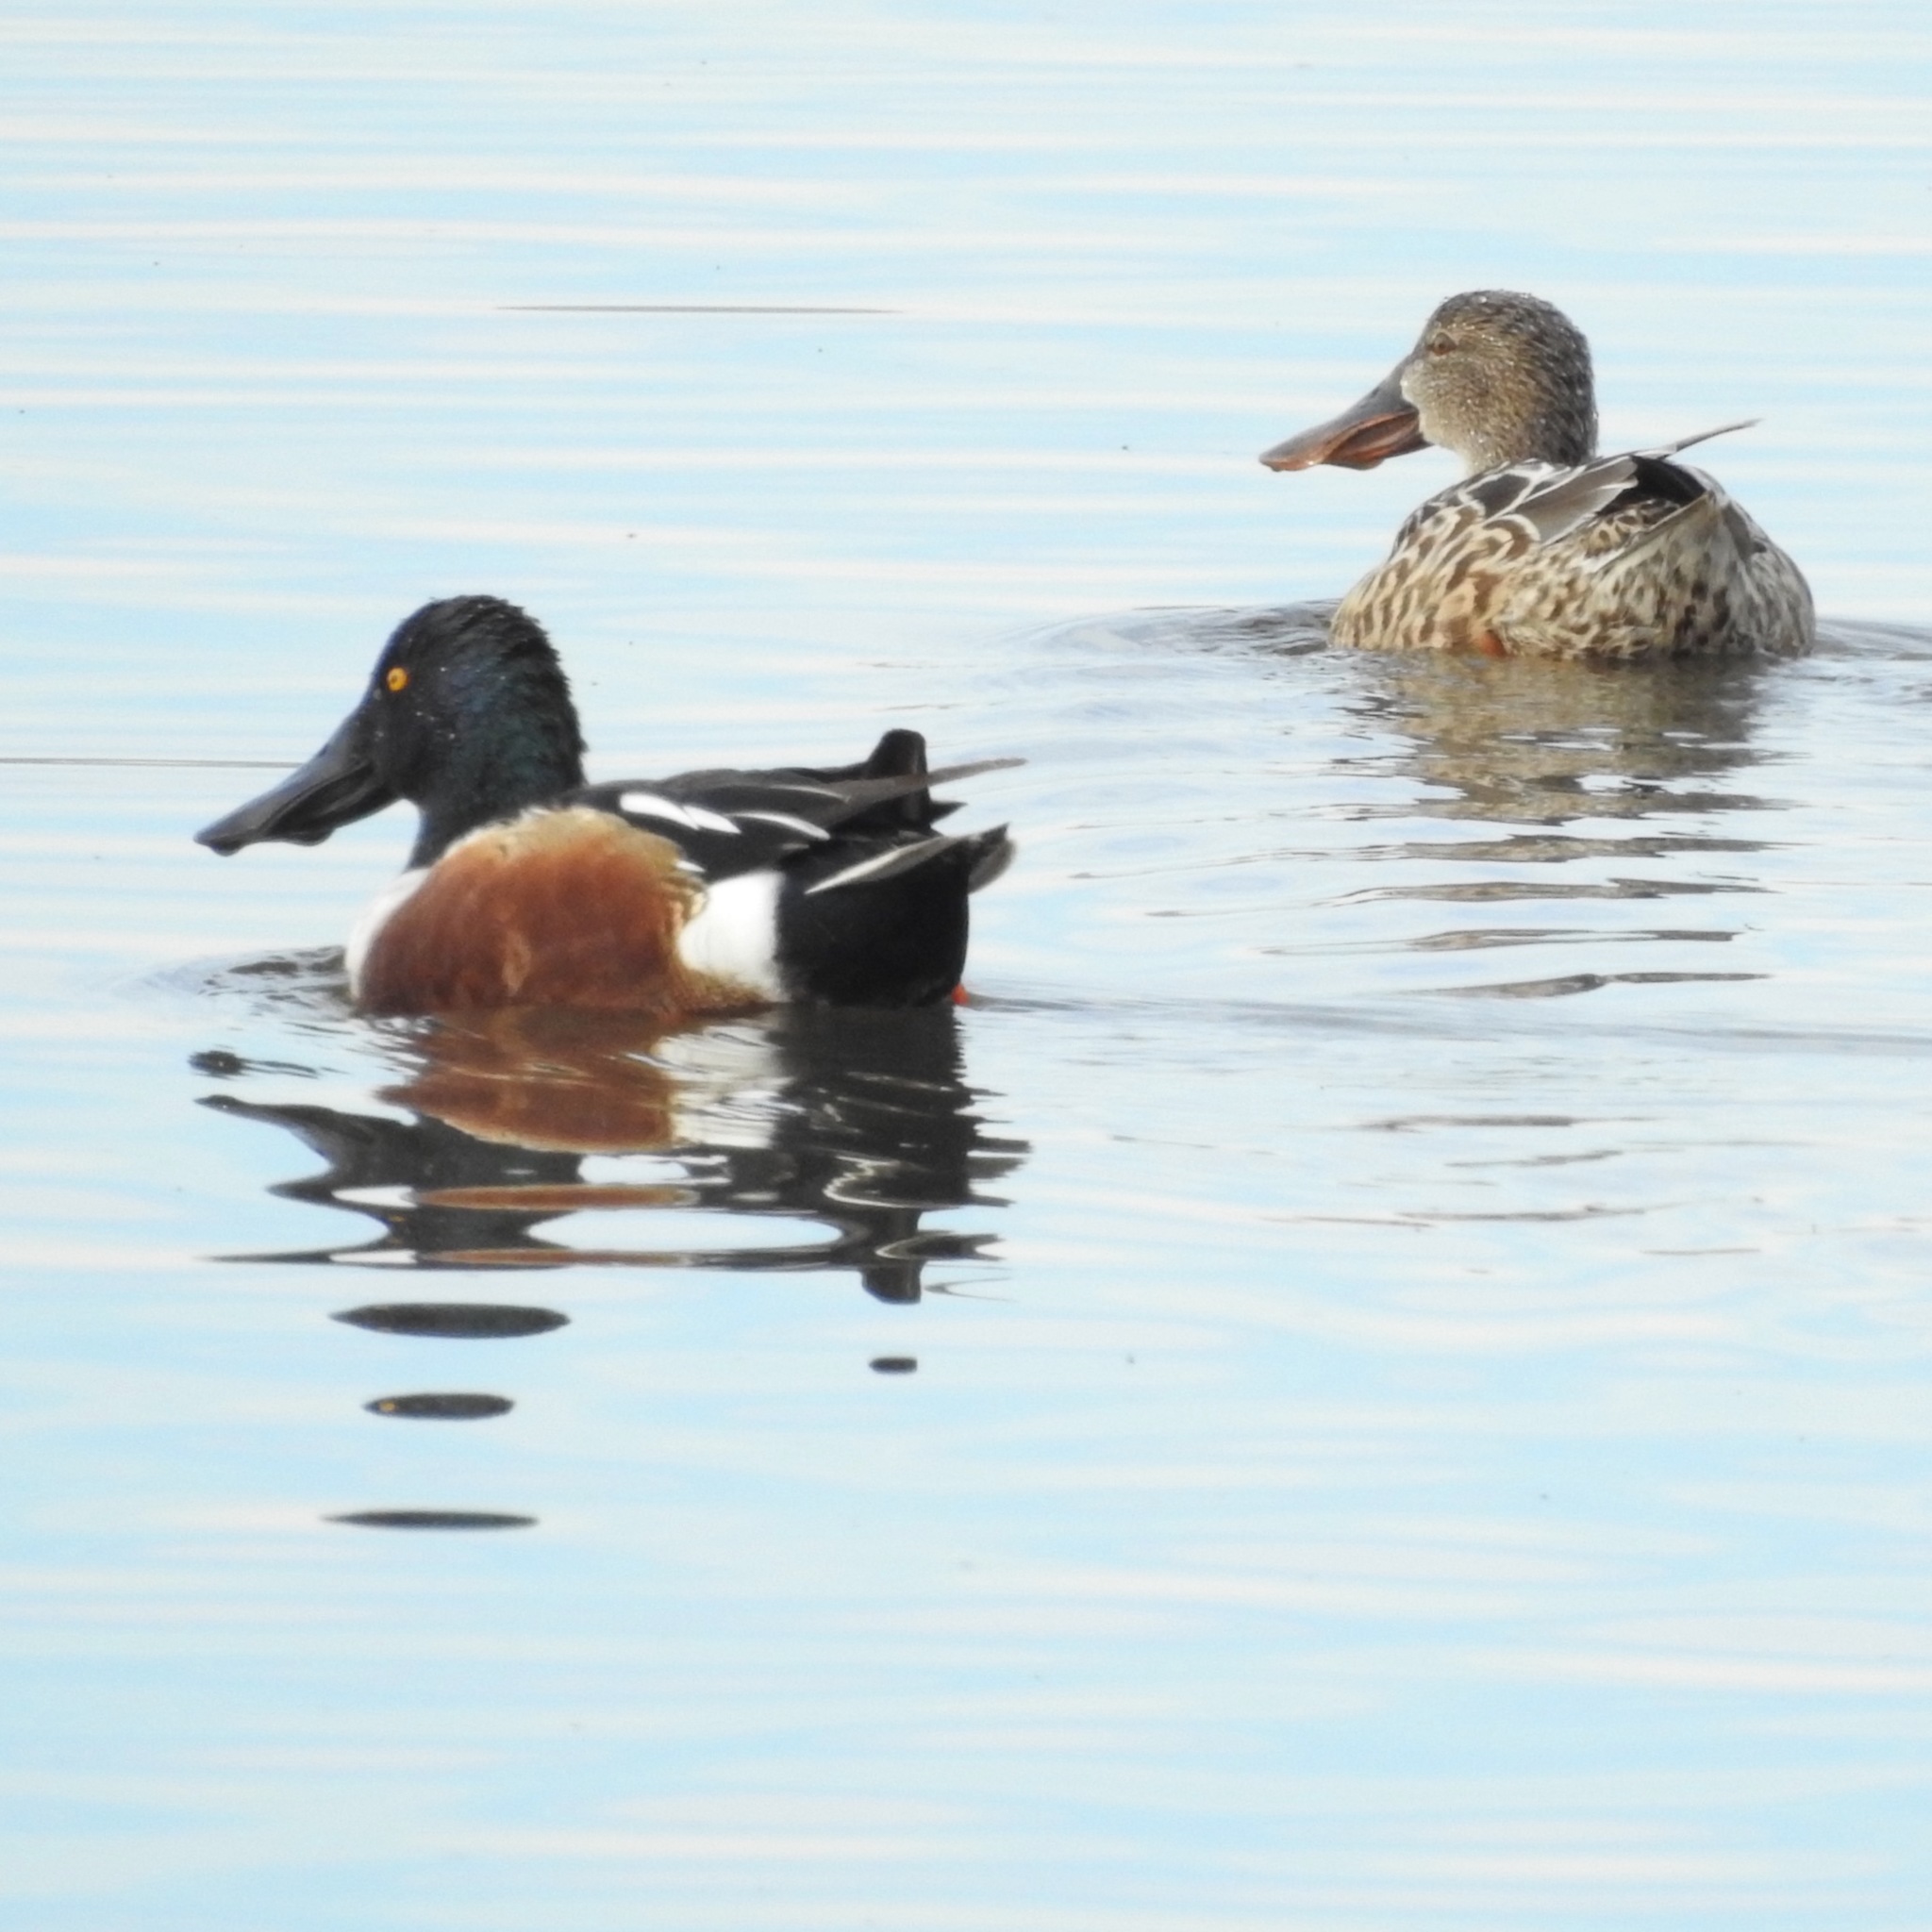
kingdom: Animalia
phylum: Chordata
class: Aves
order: Anseriformes
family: Anatidae
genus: Spatula
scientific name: Spatula clypeata
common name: Northern shoveler
